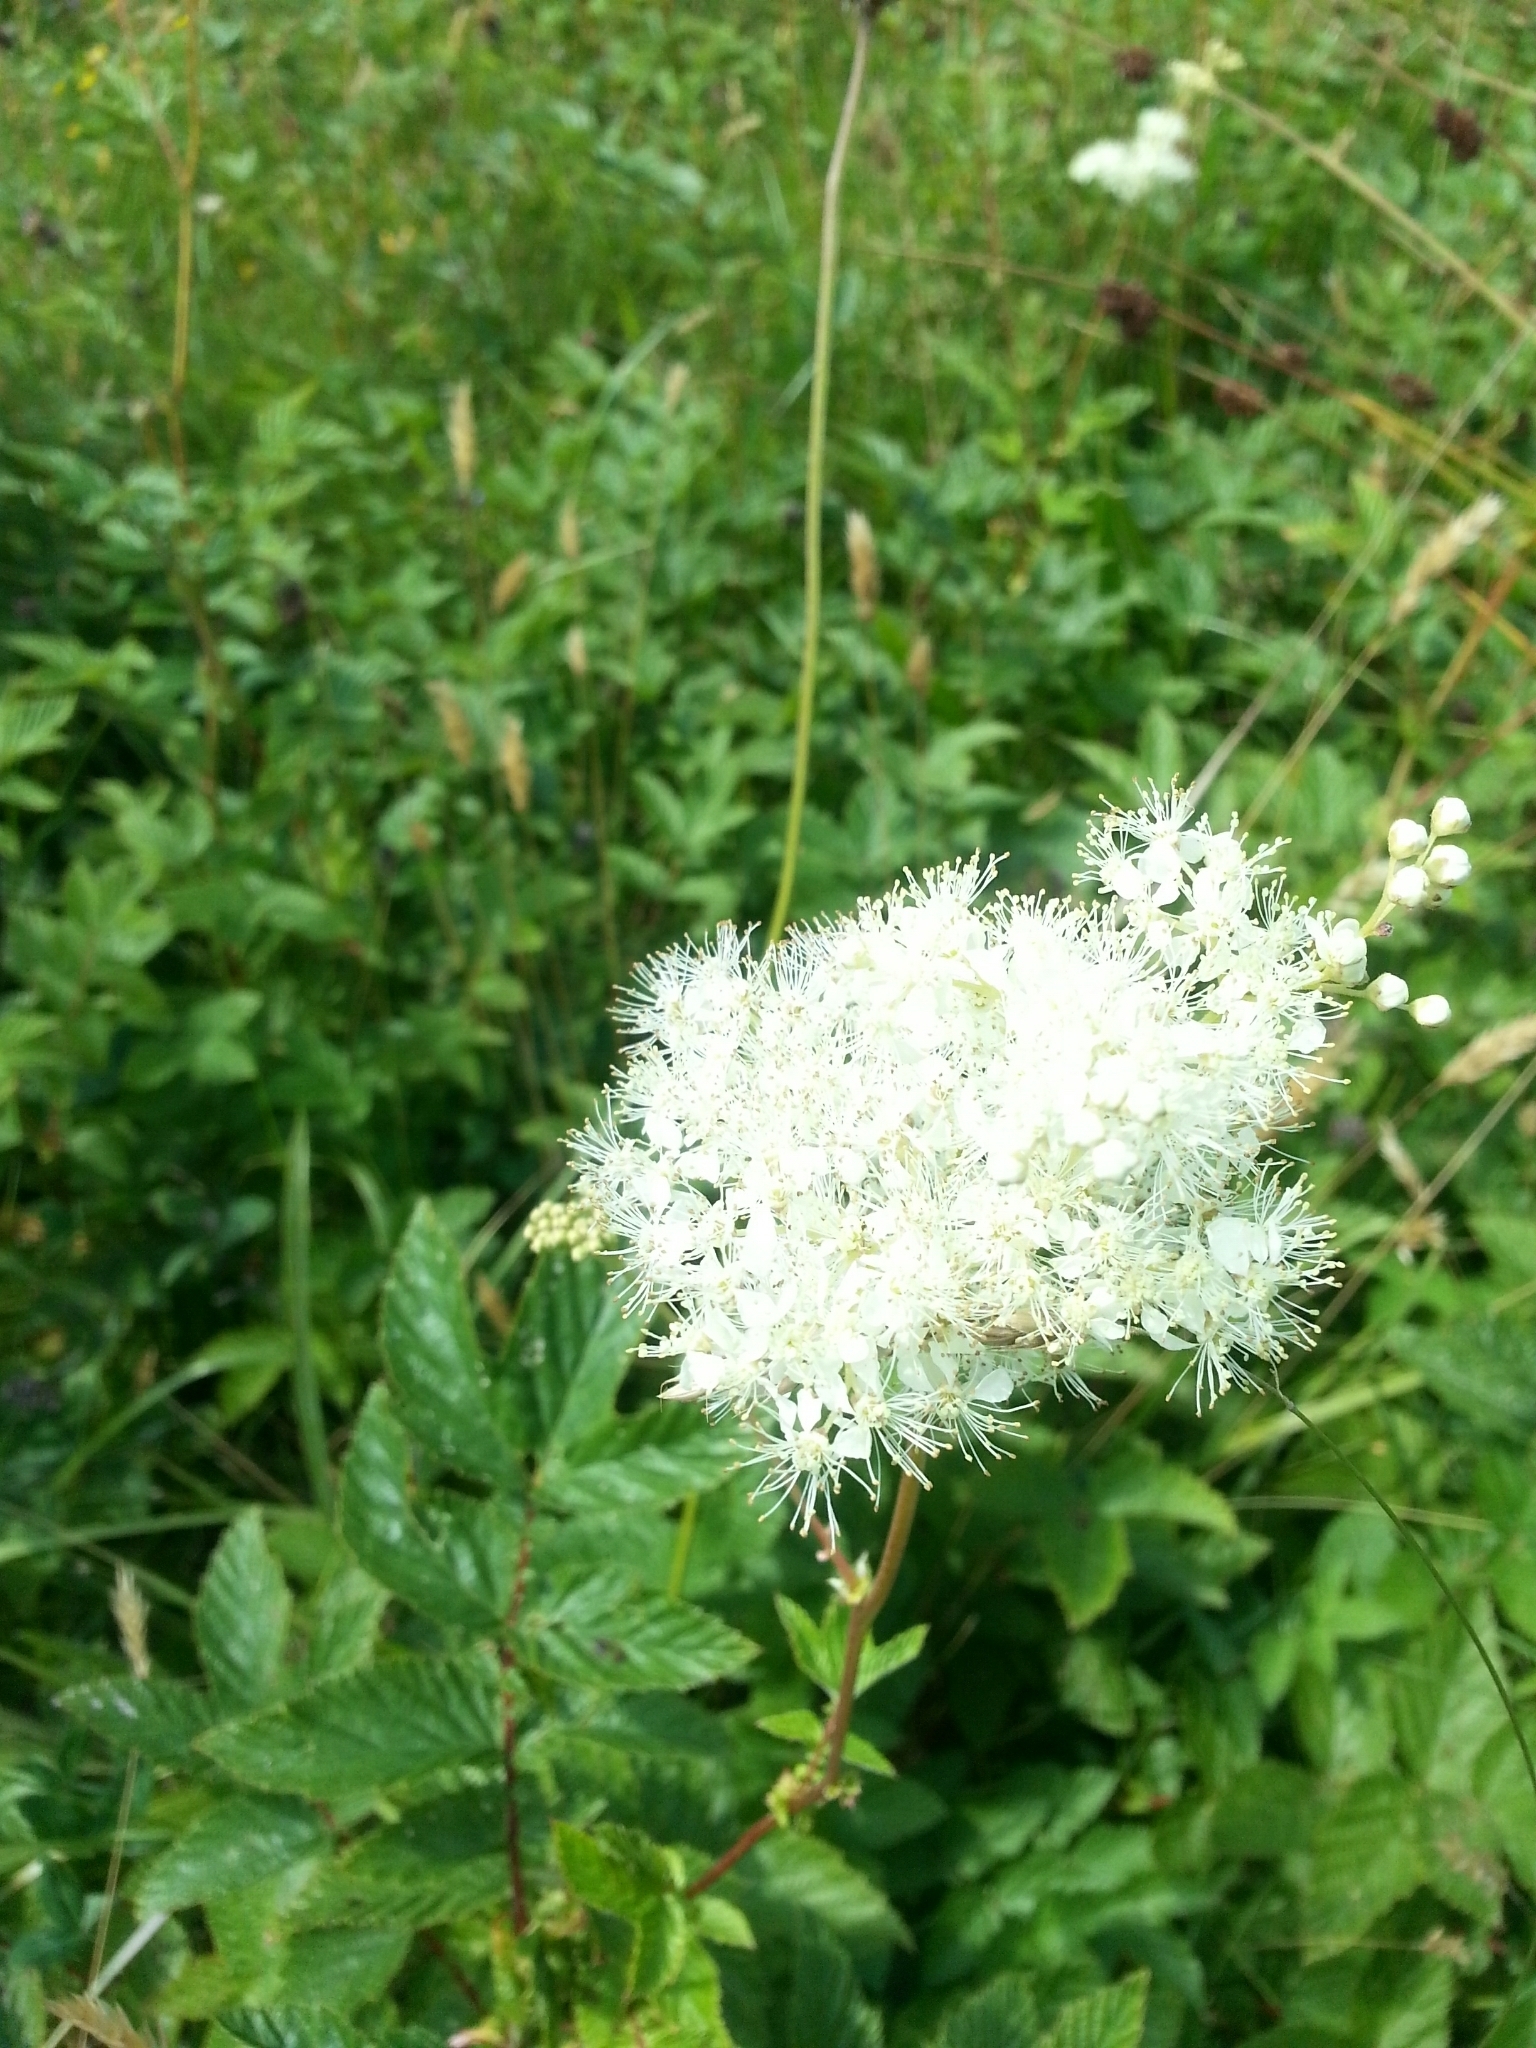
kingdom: Plantae
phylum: Tracheophyta
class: Magnoliopsida
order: Rosales
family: Rosaceae
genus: Filipendula
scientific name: Filipendula ulmaria
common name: Meadowsweet
